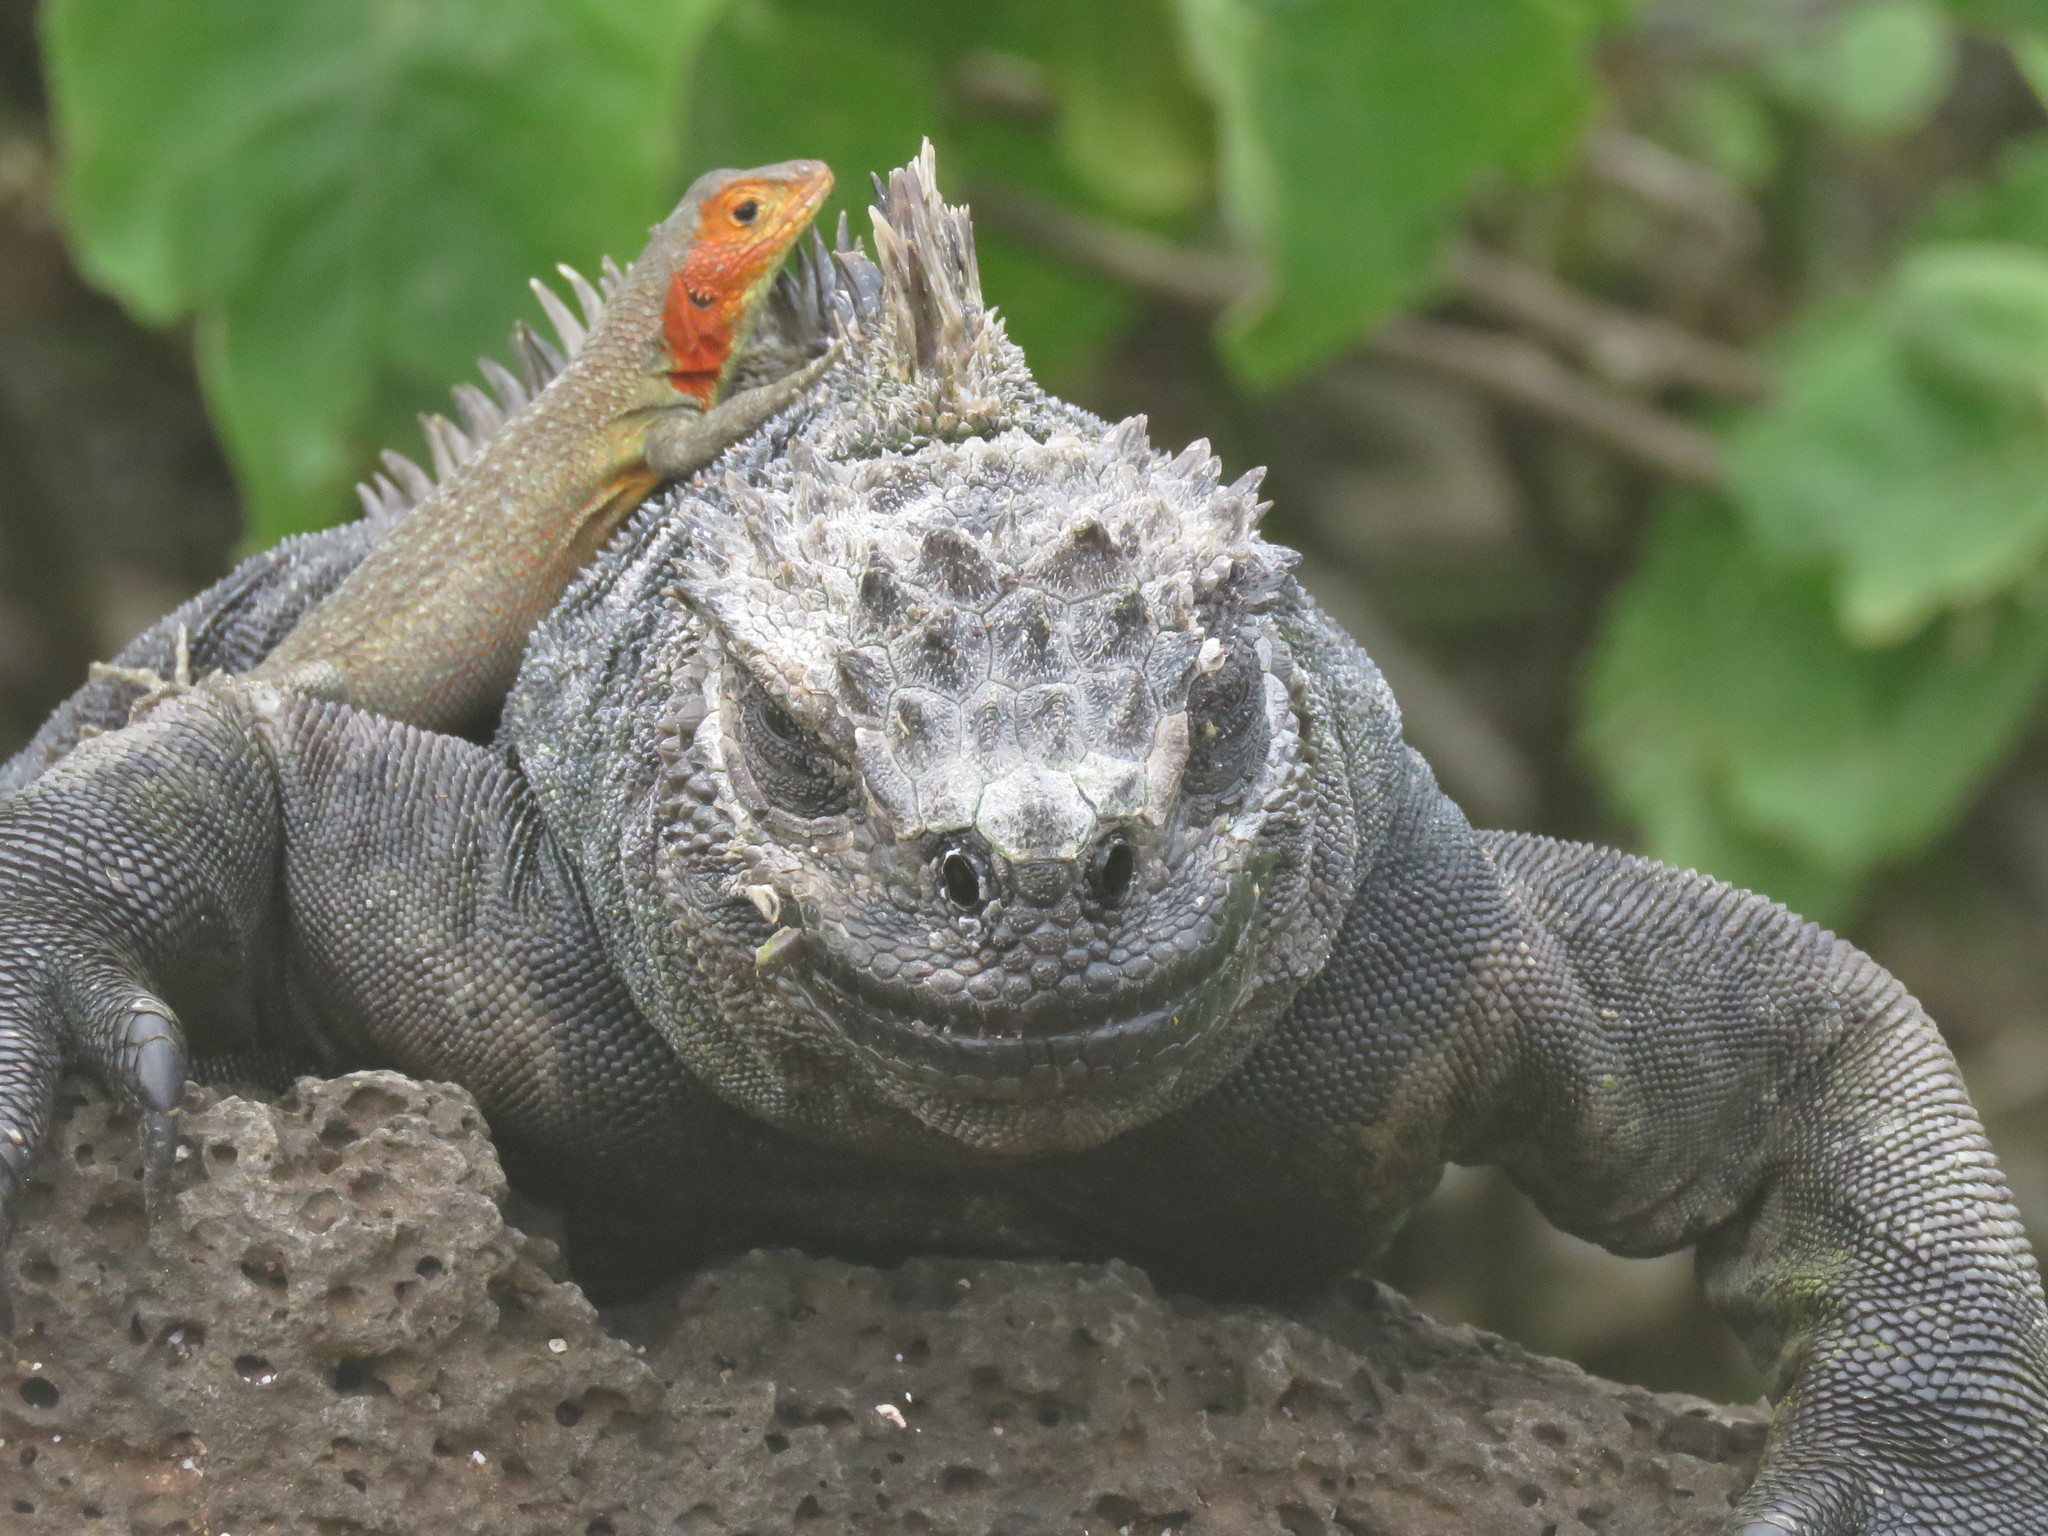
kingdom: Animalia
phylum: Chordata
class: Squamata
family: Iguanidae
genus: Amblyrhynchus
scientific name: Amblyrhynchus cristatus
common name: Marine iguana
